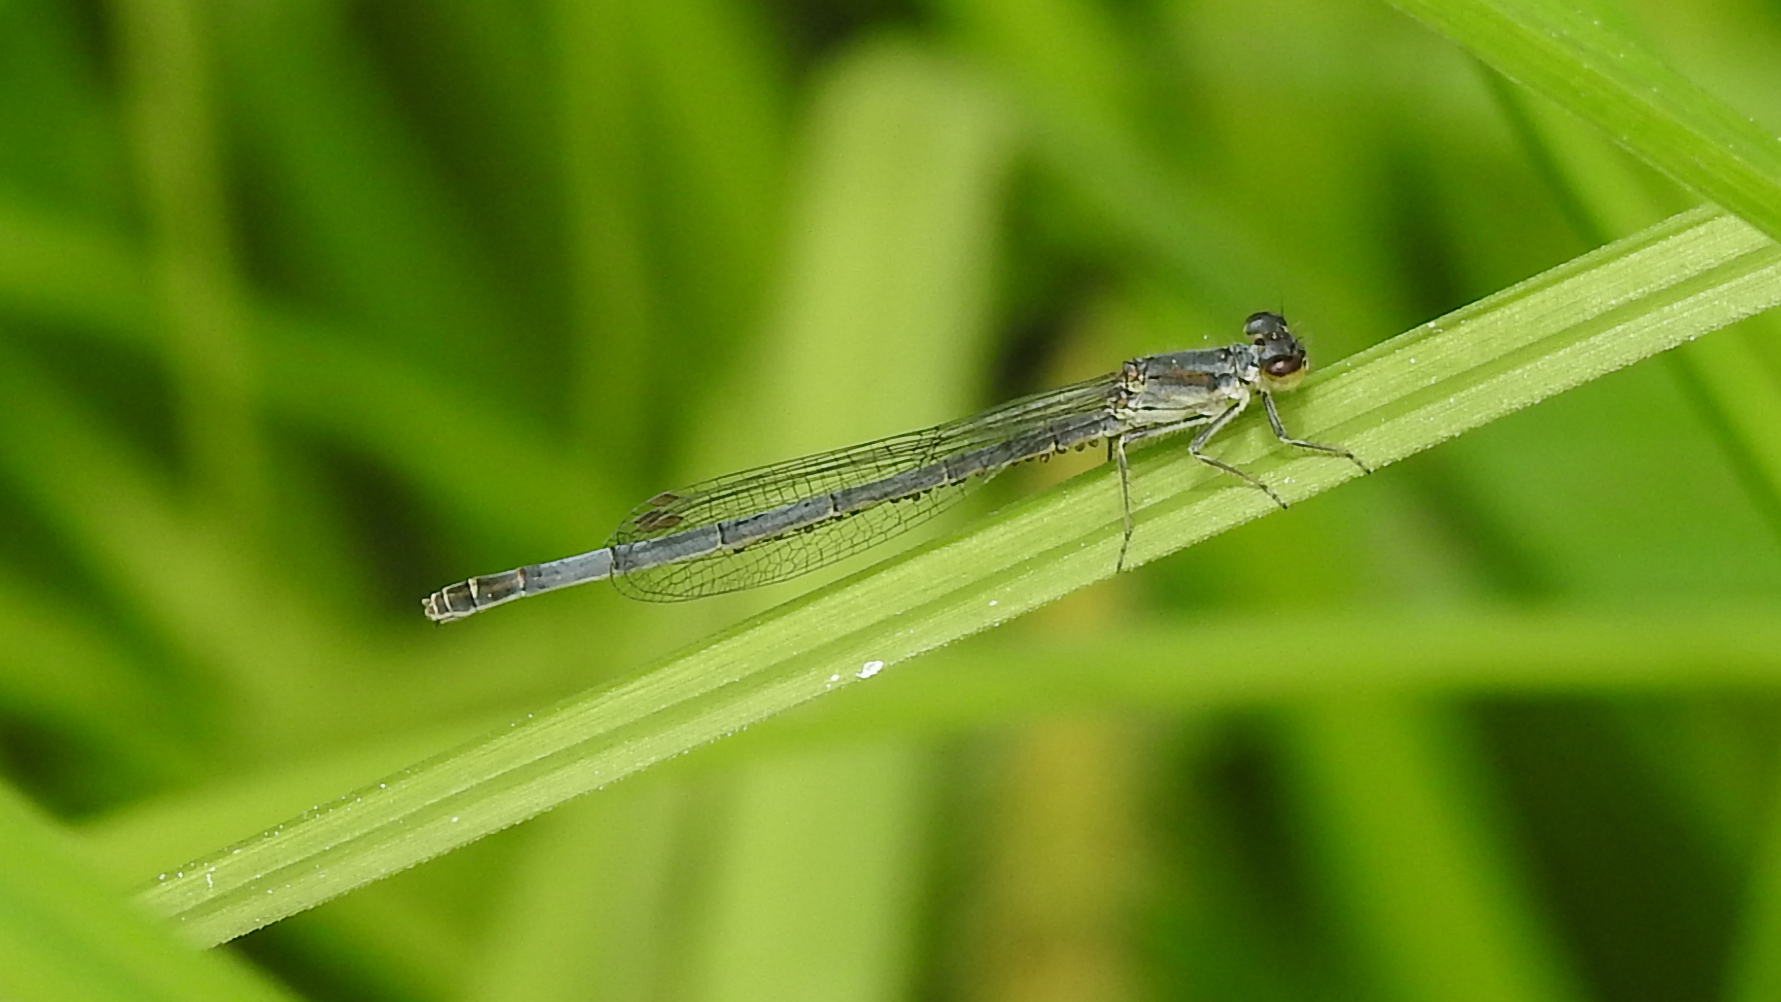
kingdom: Animalia
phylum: Arthropoda
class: Insecta
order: Odonata
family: Coenagrionidae
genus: Ischnura
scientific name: Ischnura posita
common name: Fragile forktail
